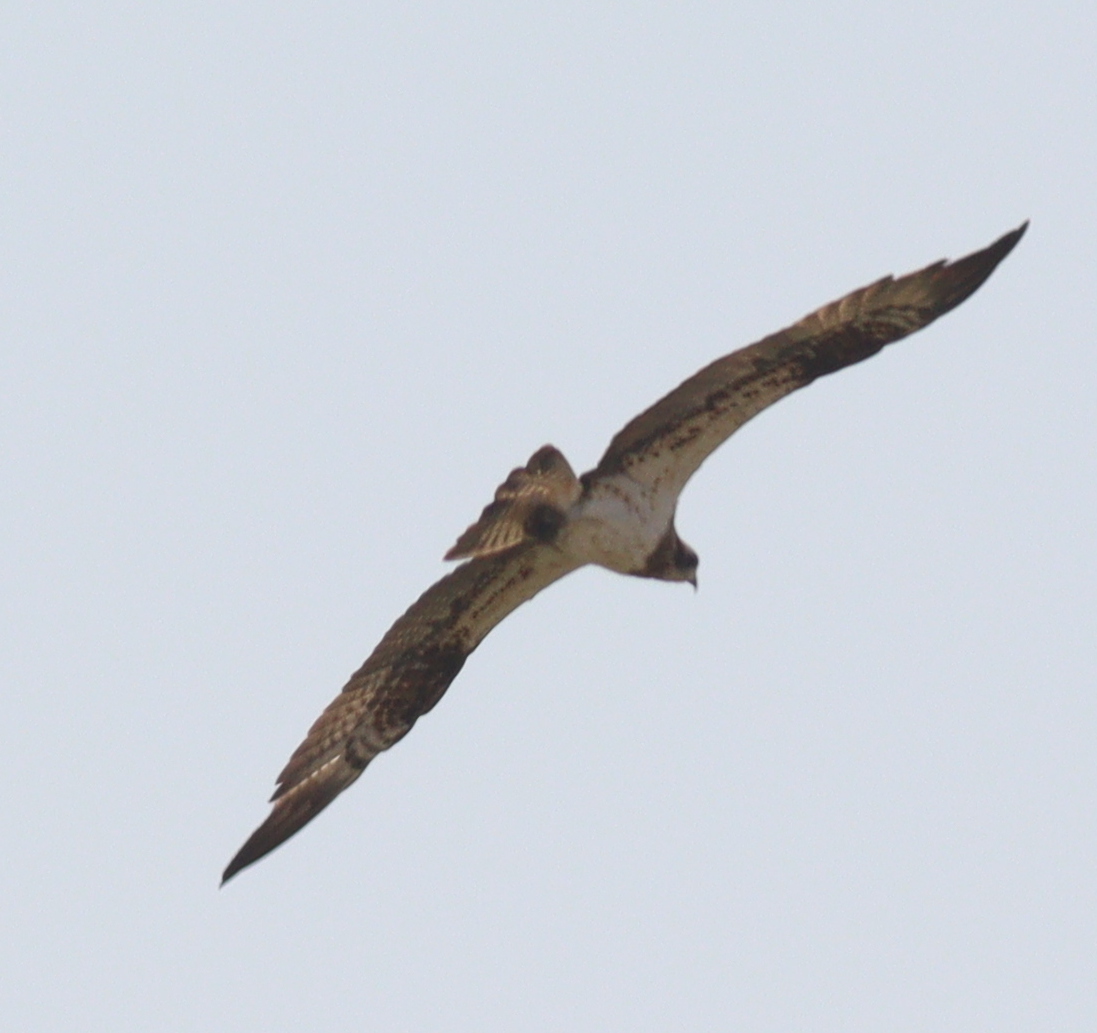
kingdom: Animalia
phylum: Chordata
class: Aves
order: Accipitriformes
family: Pandionidae
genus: Pandion
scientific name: Pandion haliaetus
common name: Osprey
